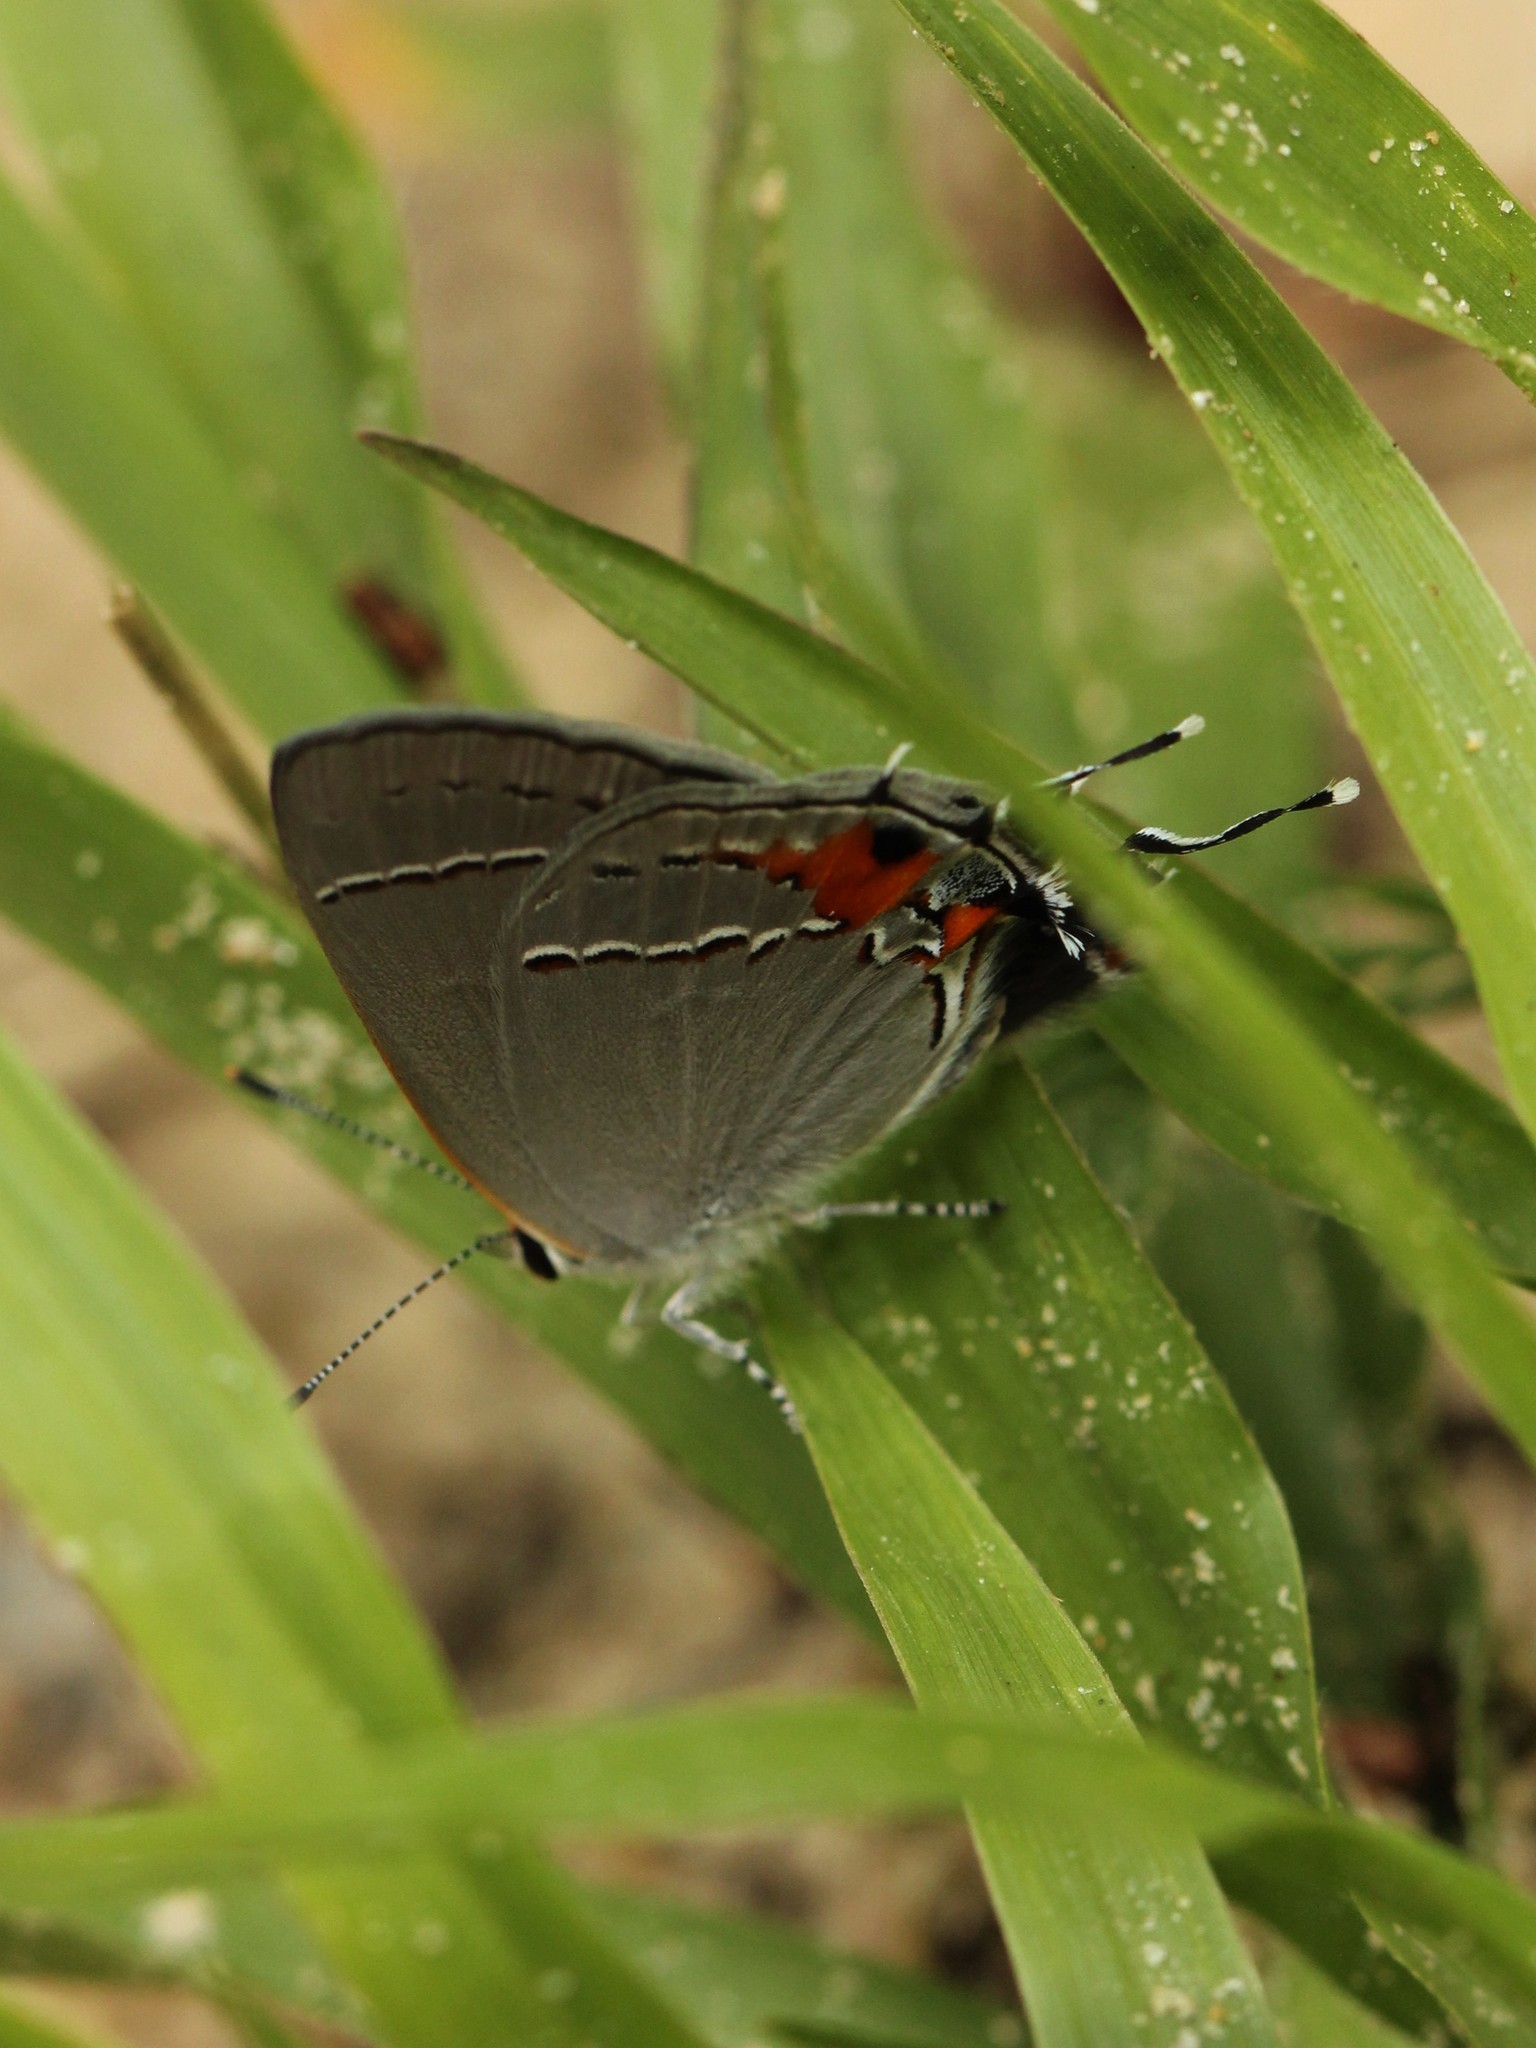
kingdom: Animalia
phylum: Arthropoda
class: Insecta
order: Lepidoptera
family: Lycaenidae
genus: Strymon
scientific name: Strymon melinus
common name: Gray hairstreak
